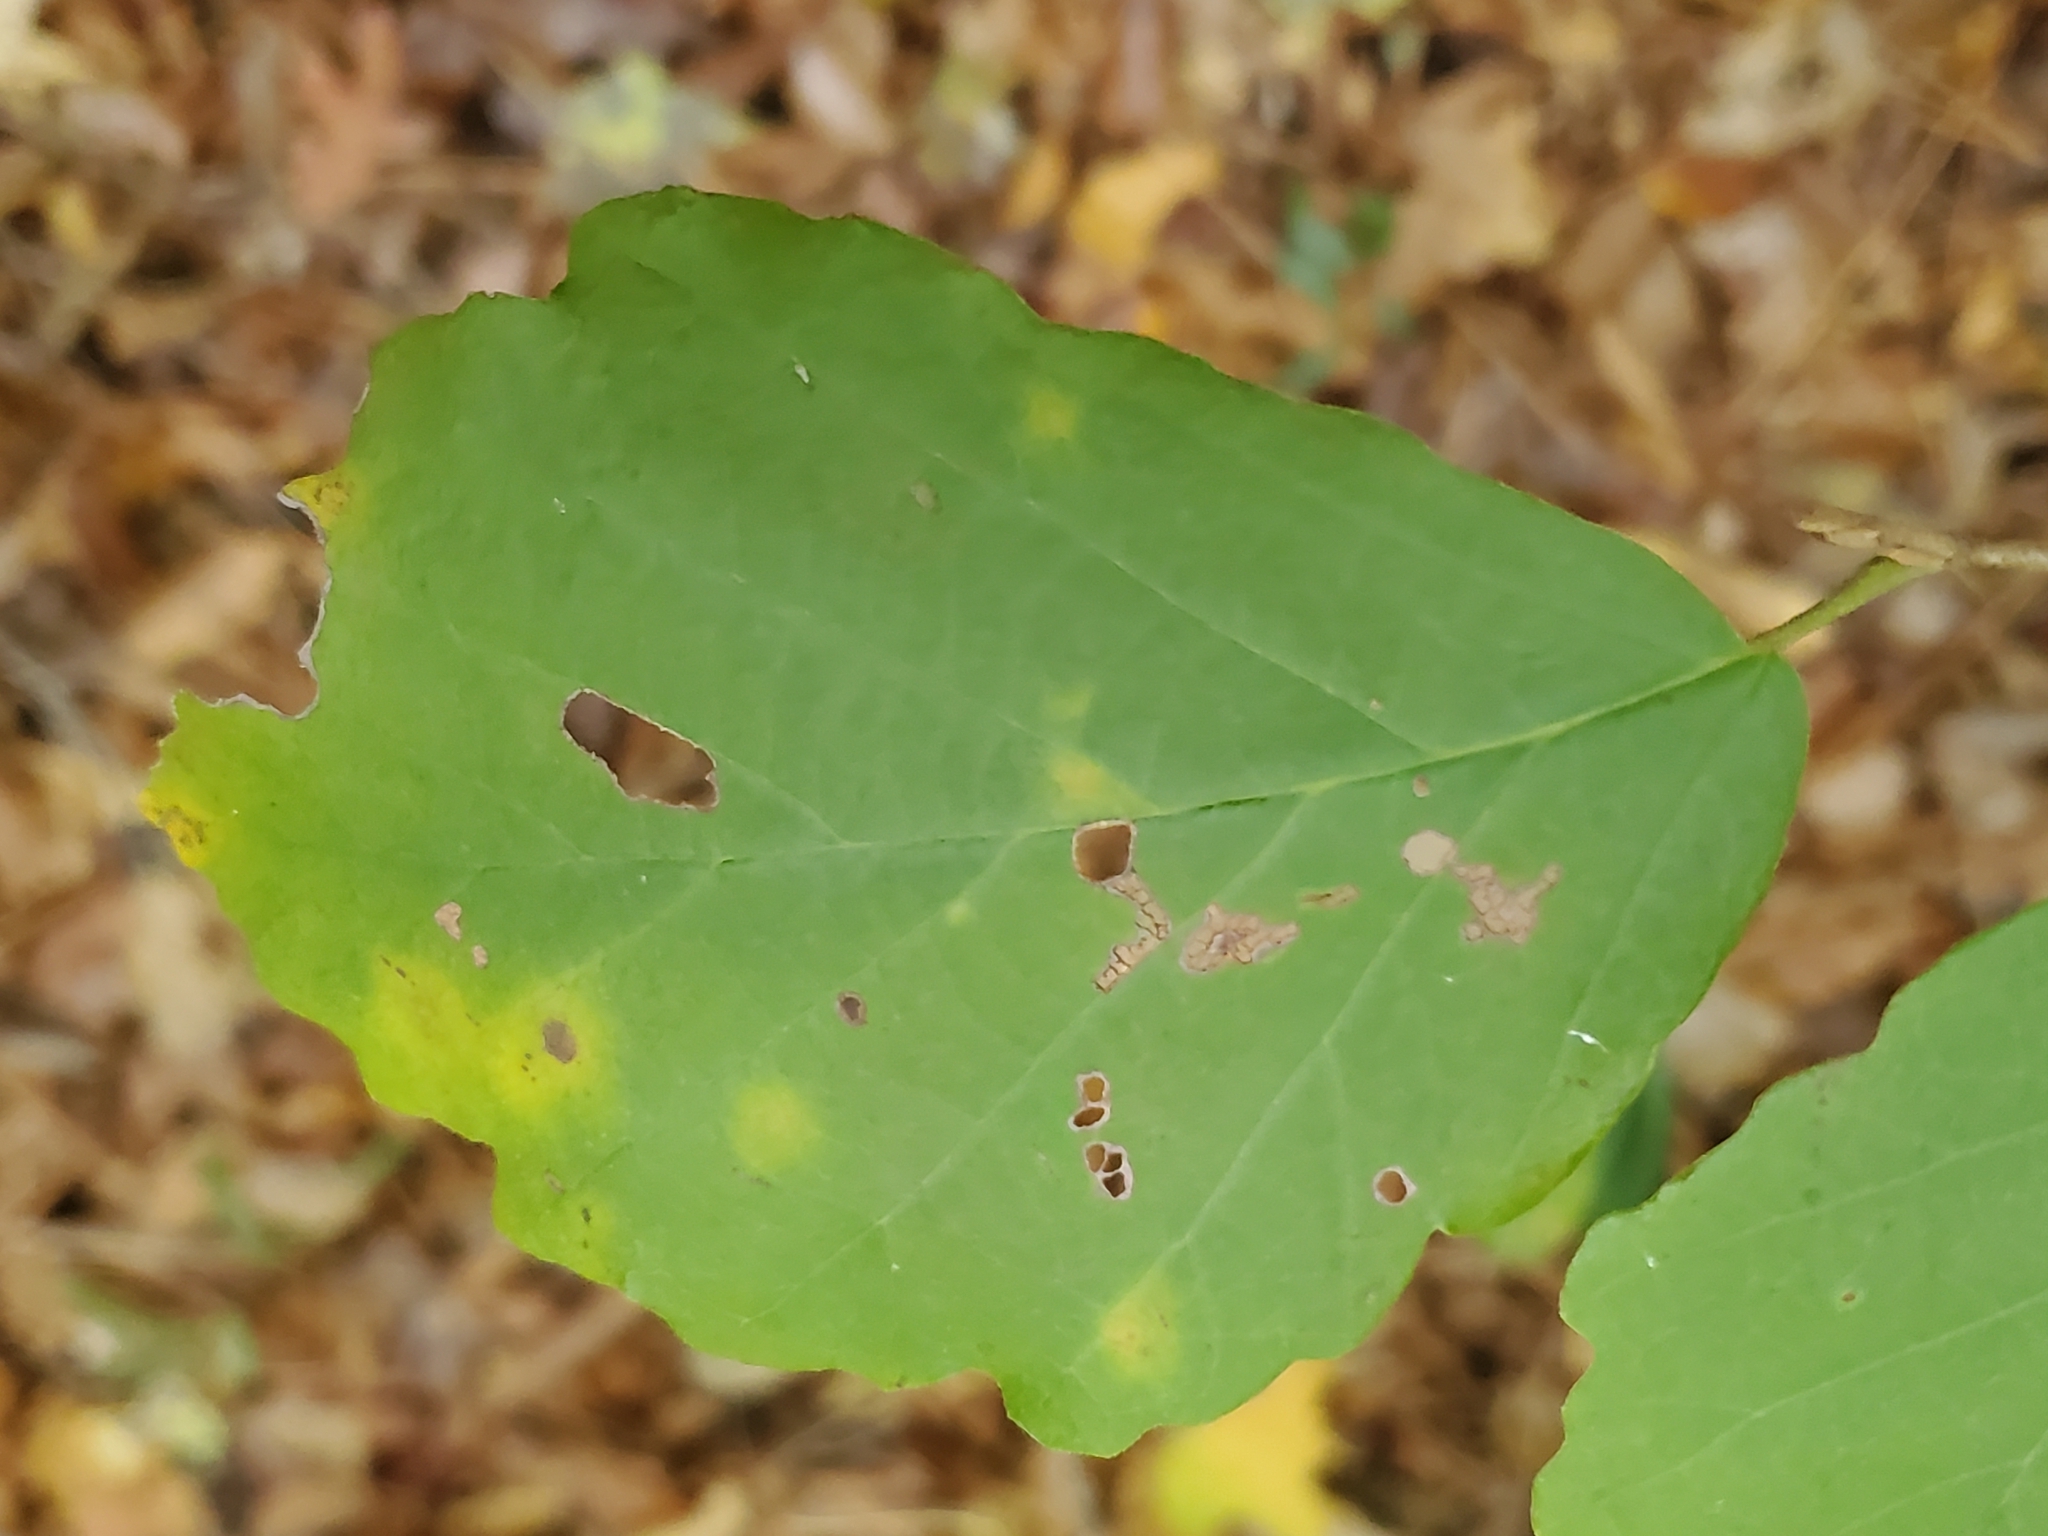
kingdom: Plantae
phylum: Tracheophyta
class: Magnoliopsida
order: Saxifragales
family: Hamamelidaceae
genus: Hamamelis
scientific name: Hamamelis virginiana
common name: Witch-hazel
